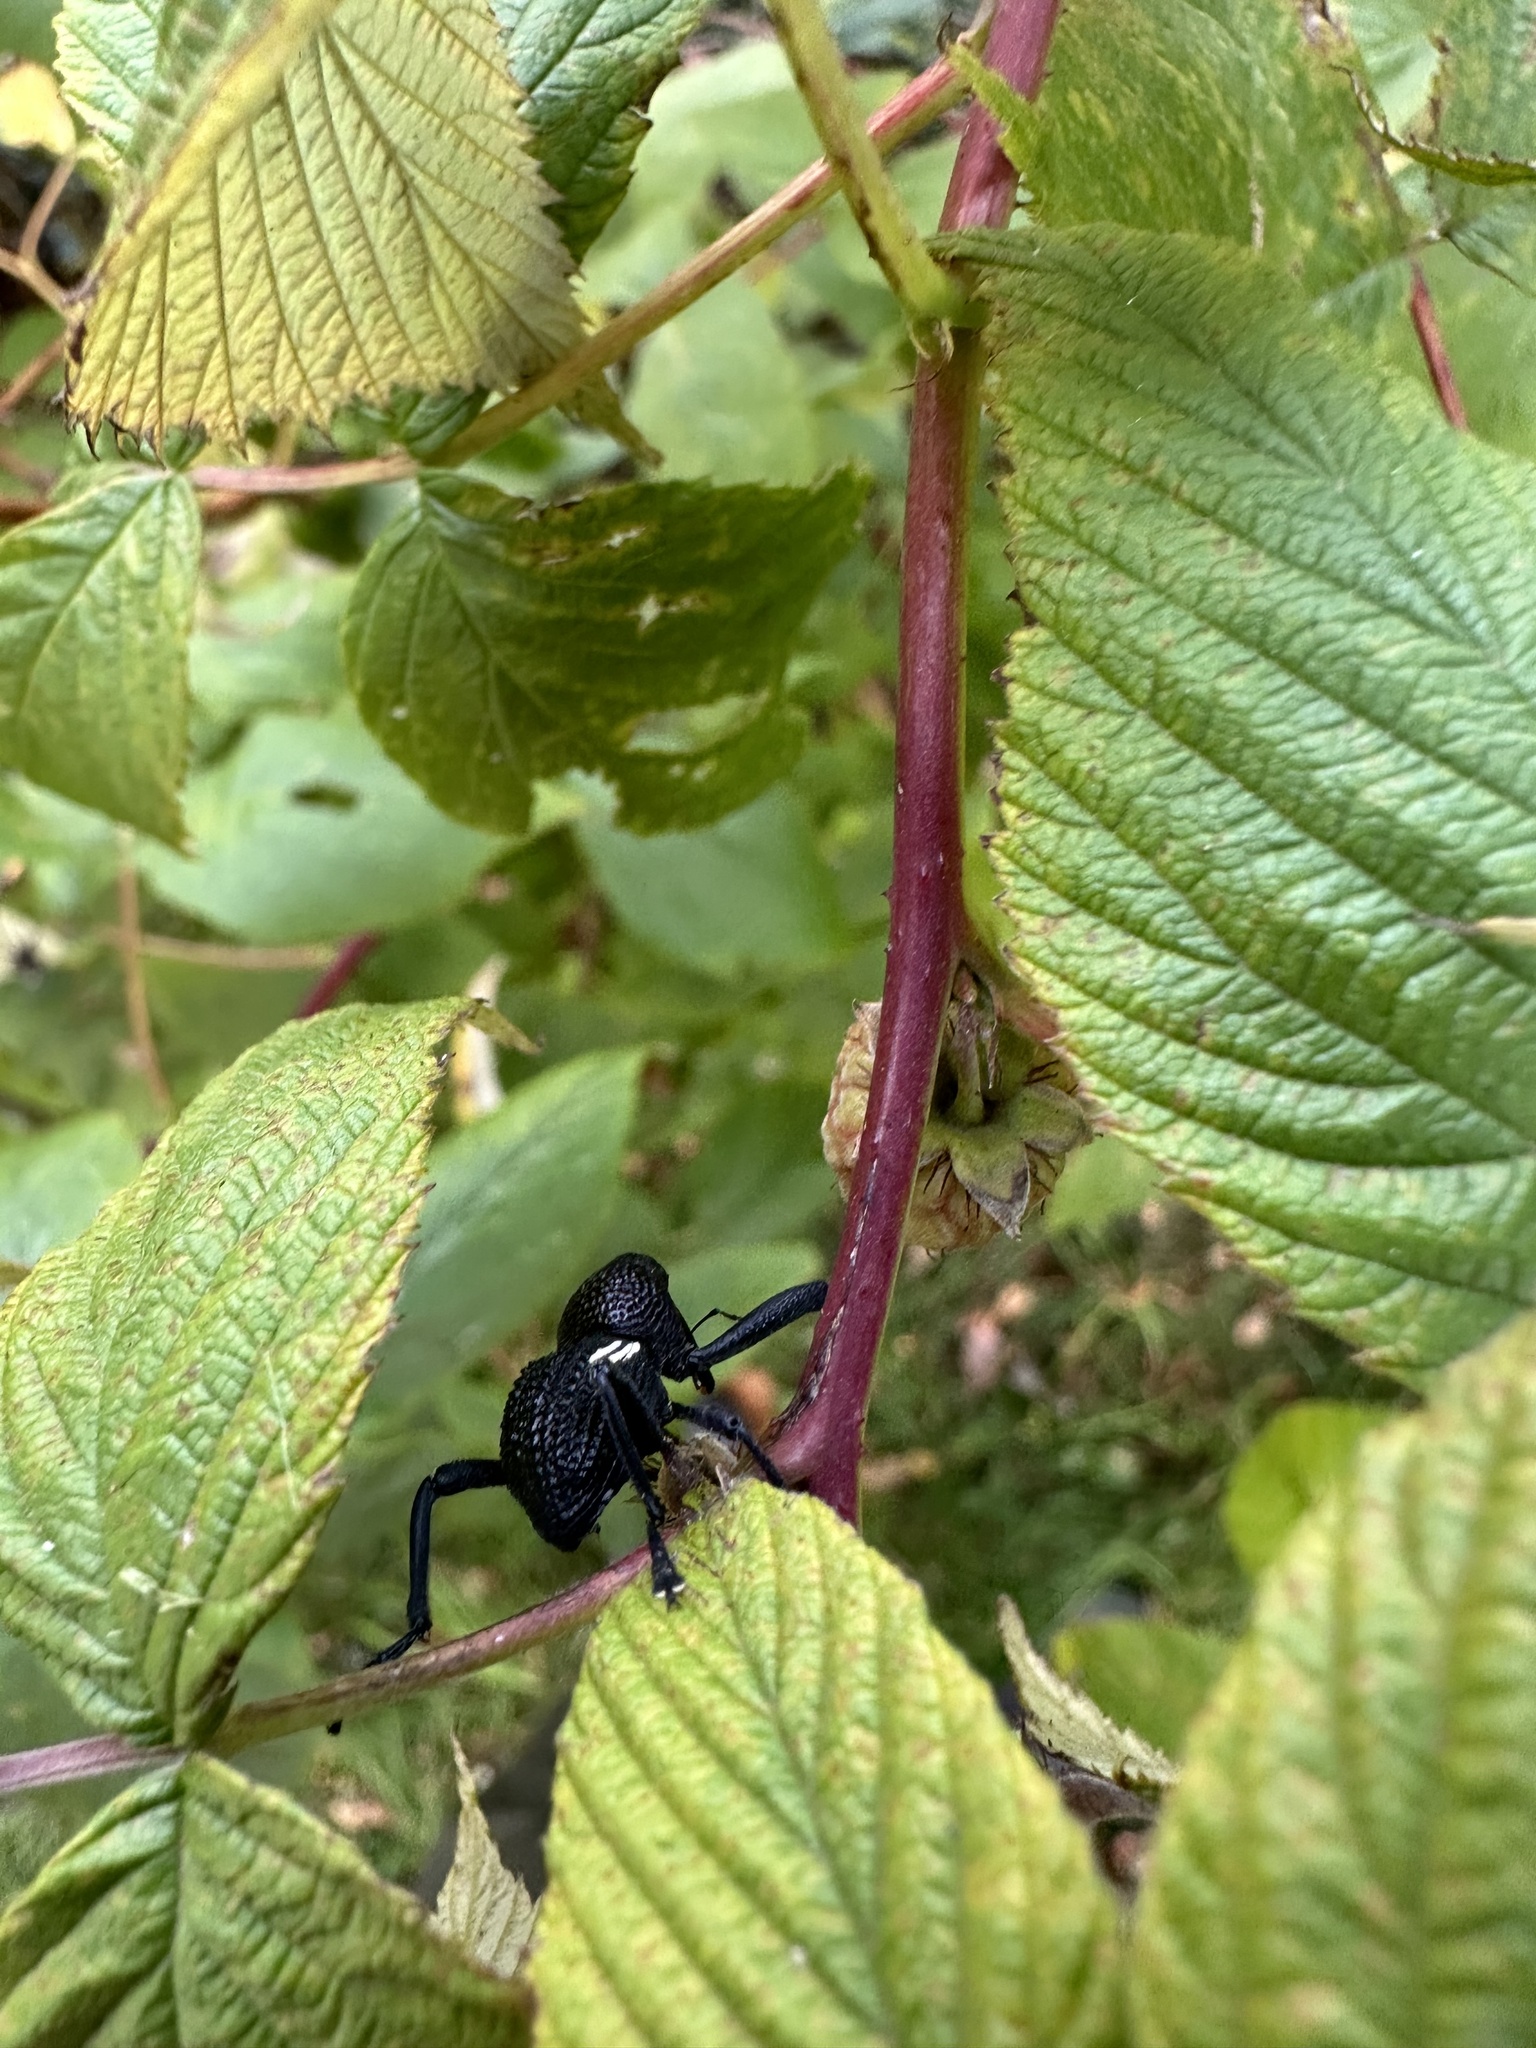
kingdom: Animalia
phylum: Arthropoda
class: Insecta
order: Coleoptera
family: Curculionidae
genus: Rhyephenes
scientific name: Rhyephenes humeralis
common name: Araè±ita chilena del pino
